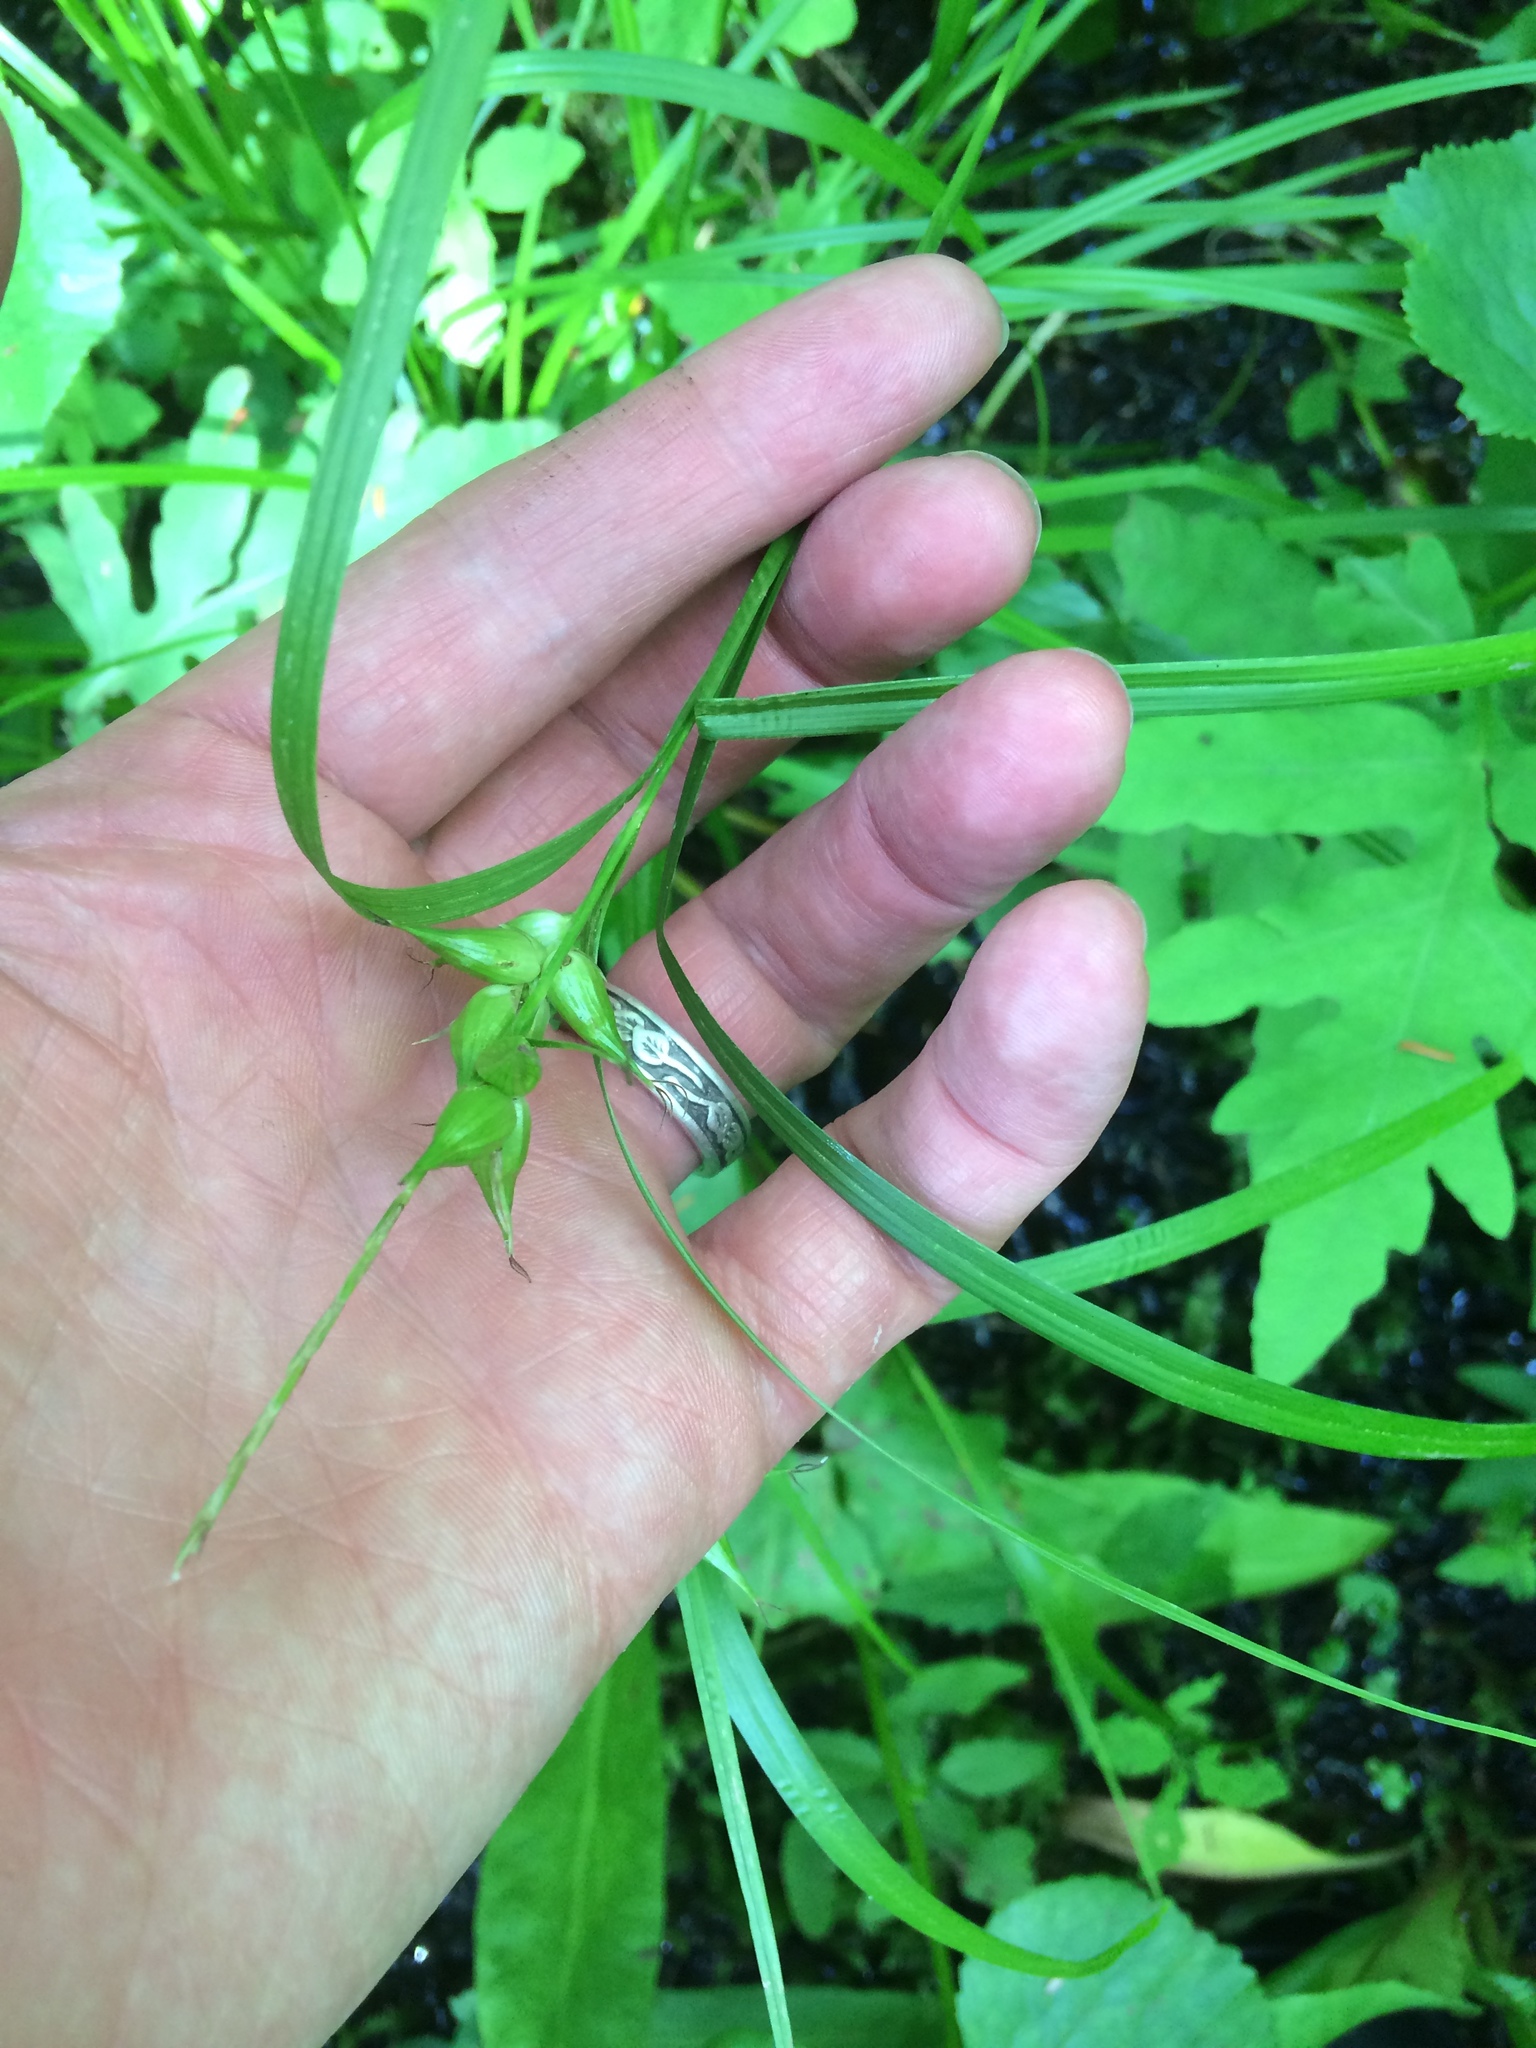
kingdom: Plantae
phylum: Tracheophyta
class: Liliopsida
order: Poales
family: Cyperaceae
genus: Carex
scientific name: Carex intumescens
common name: Greater bladder sedge
